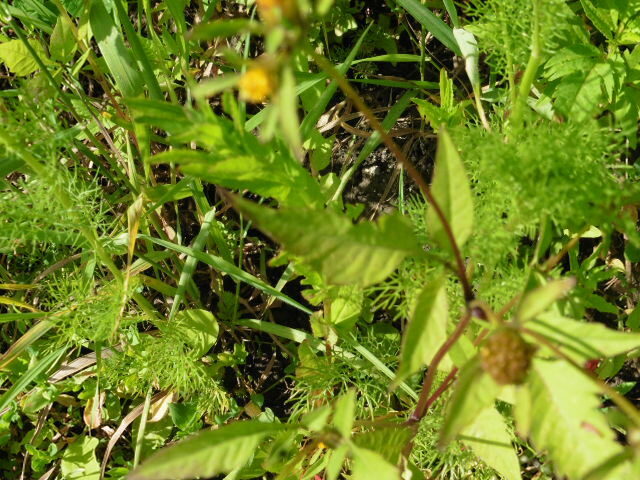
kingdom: Plantae
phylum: Tracheophyta
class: Magnoliopsida
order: Asterales
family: Asteraceae
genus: Bidens
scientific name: Bidens frondosa
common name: Beggarticks
